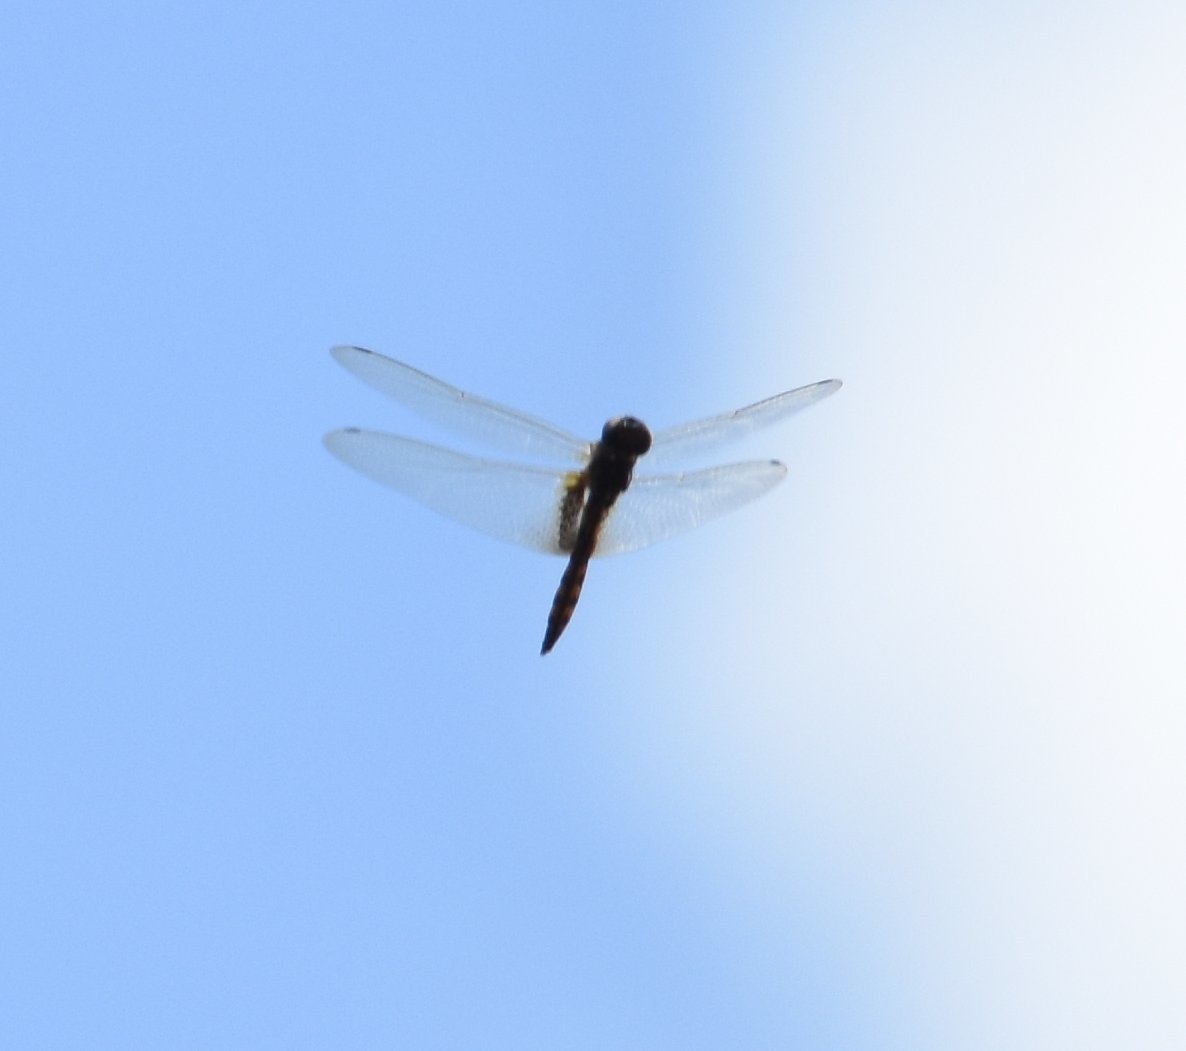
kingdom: Animalia
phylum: Arthropoda
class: Insecta
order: Odonata
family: Libellulidae
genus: Miathyria
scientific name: Miathyria marcella
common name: Hyacinth glider
